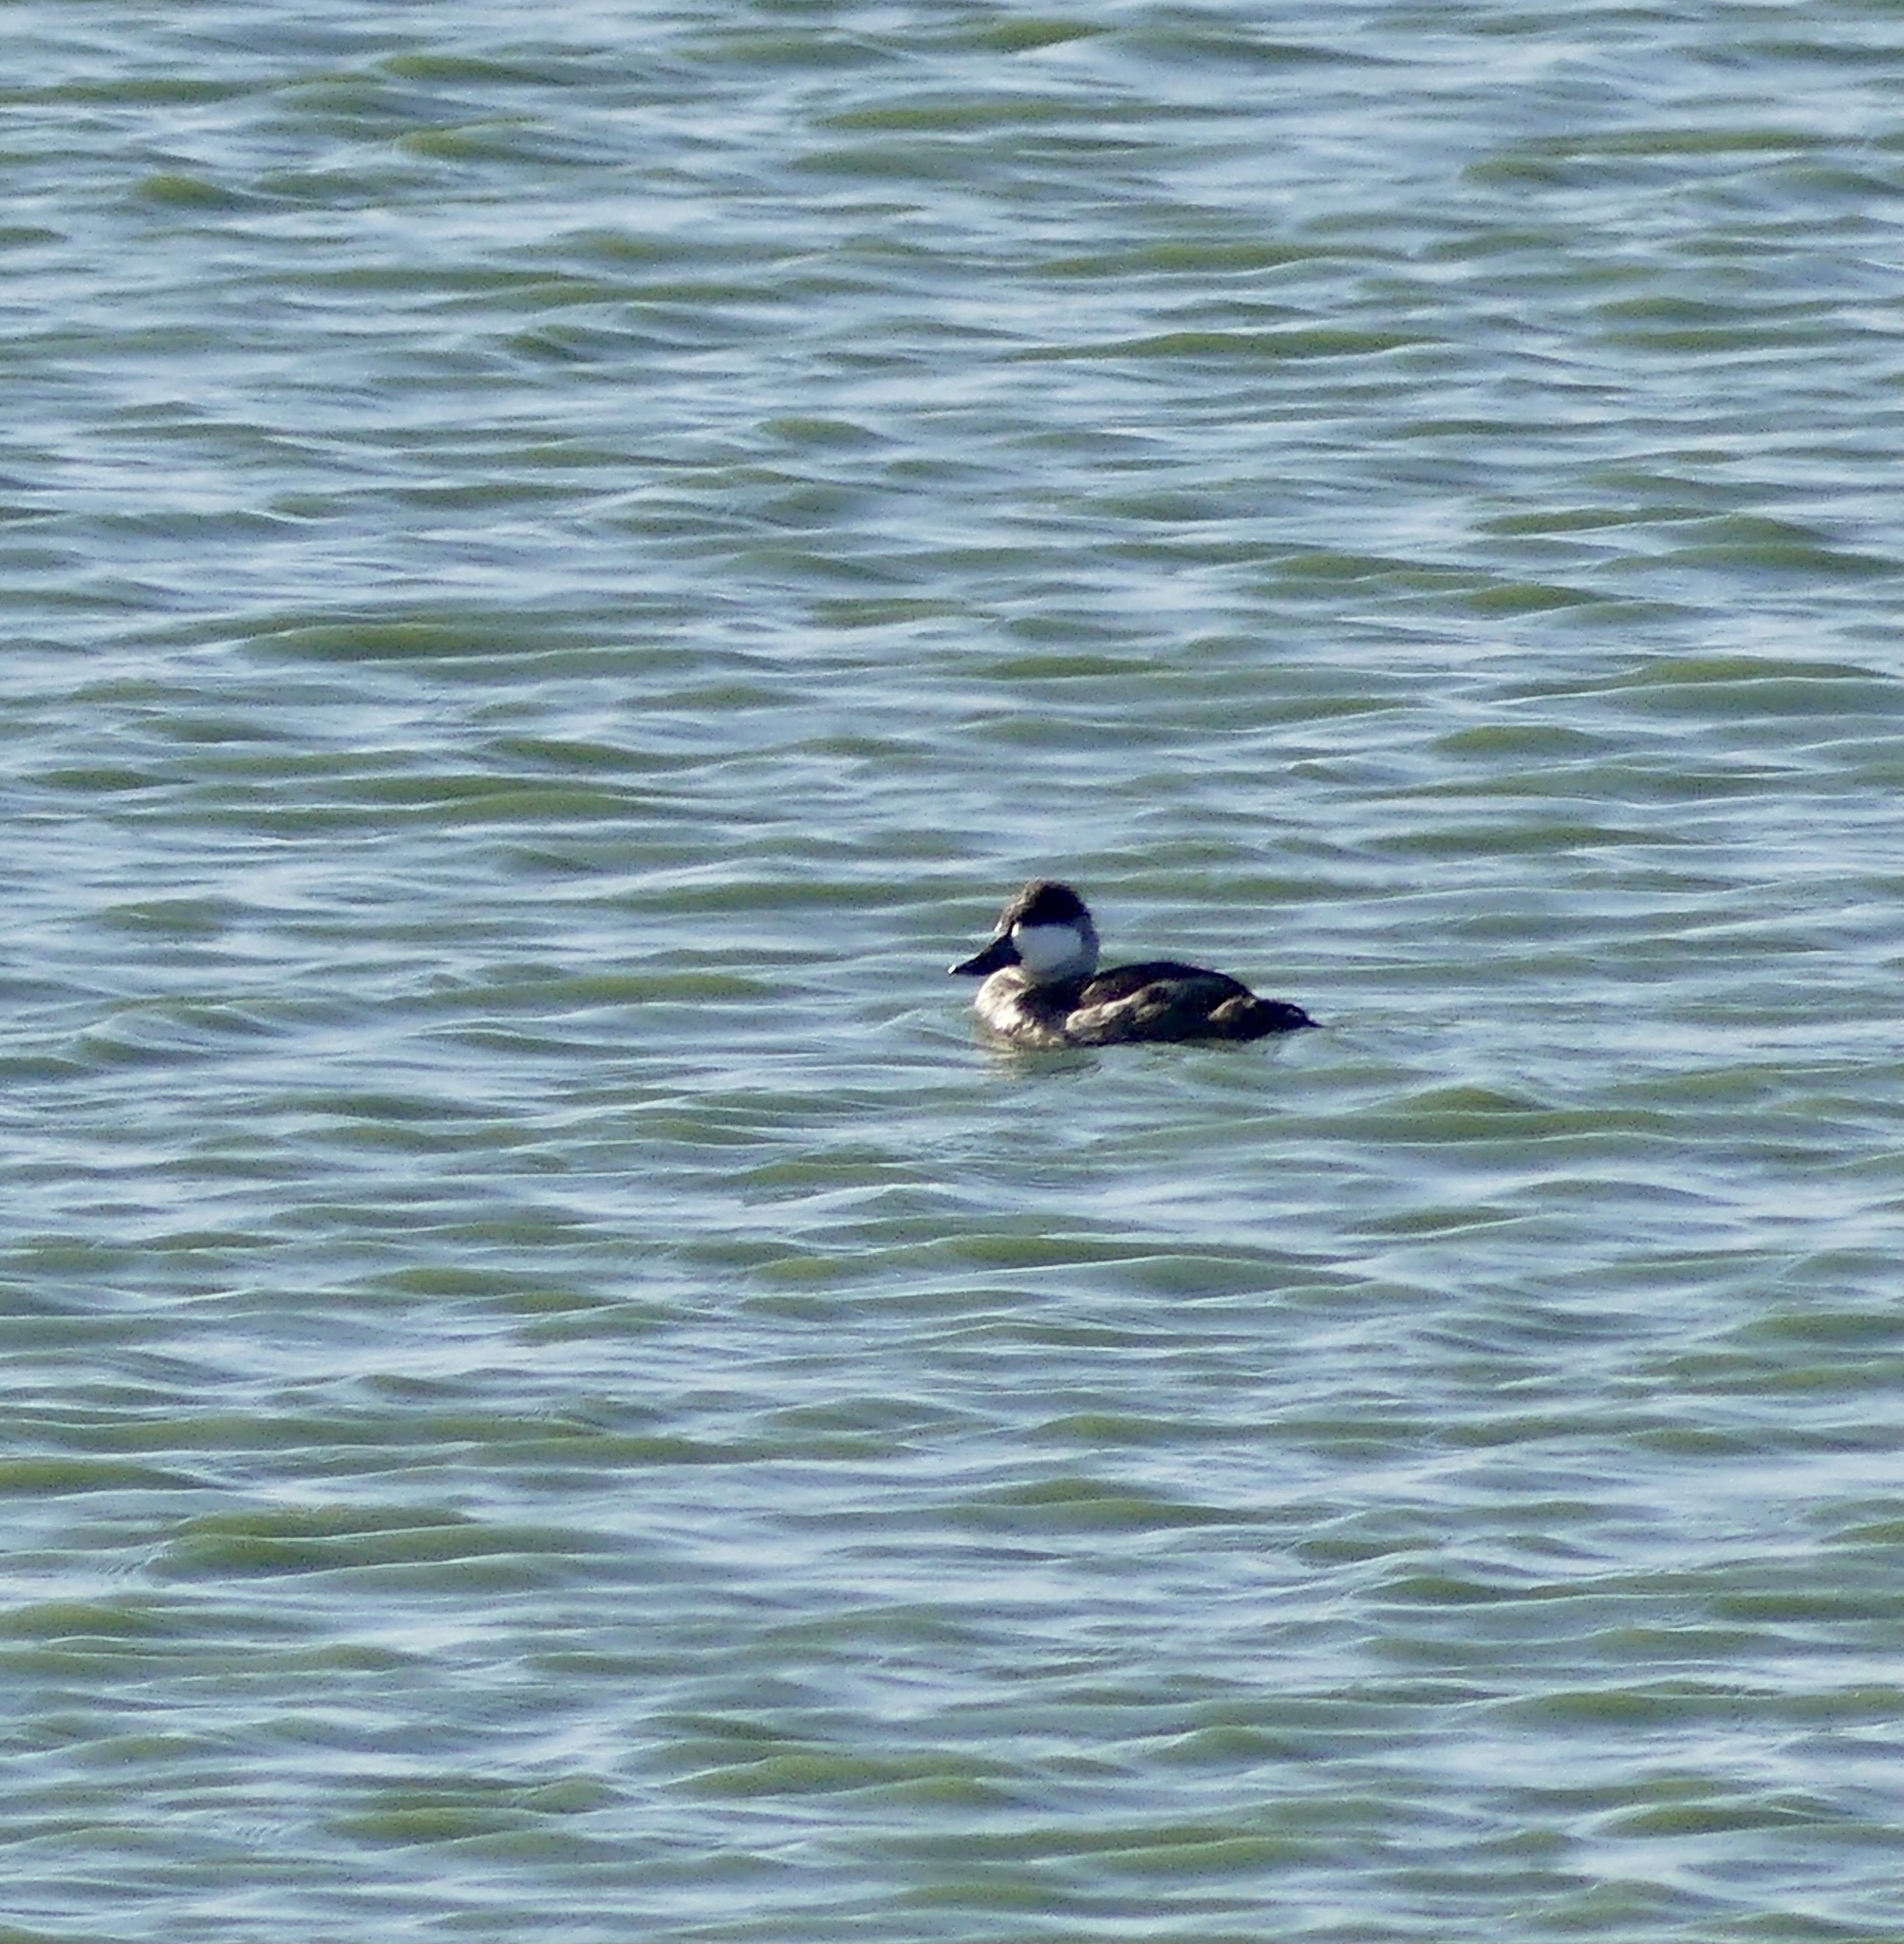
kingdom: Animalia
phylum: Chordata
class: Aves
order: Anseriformes
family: Anatidae
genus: Oxyura
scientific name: Oxyura jamaicensis
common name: Ruddy duck
